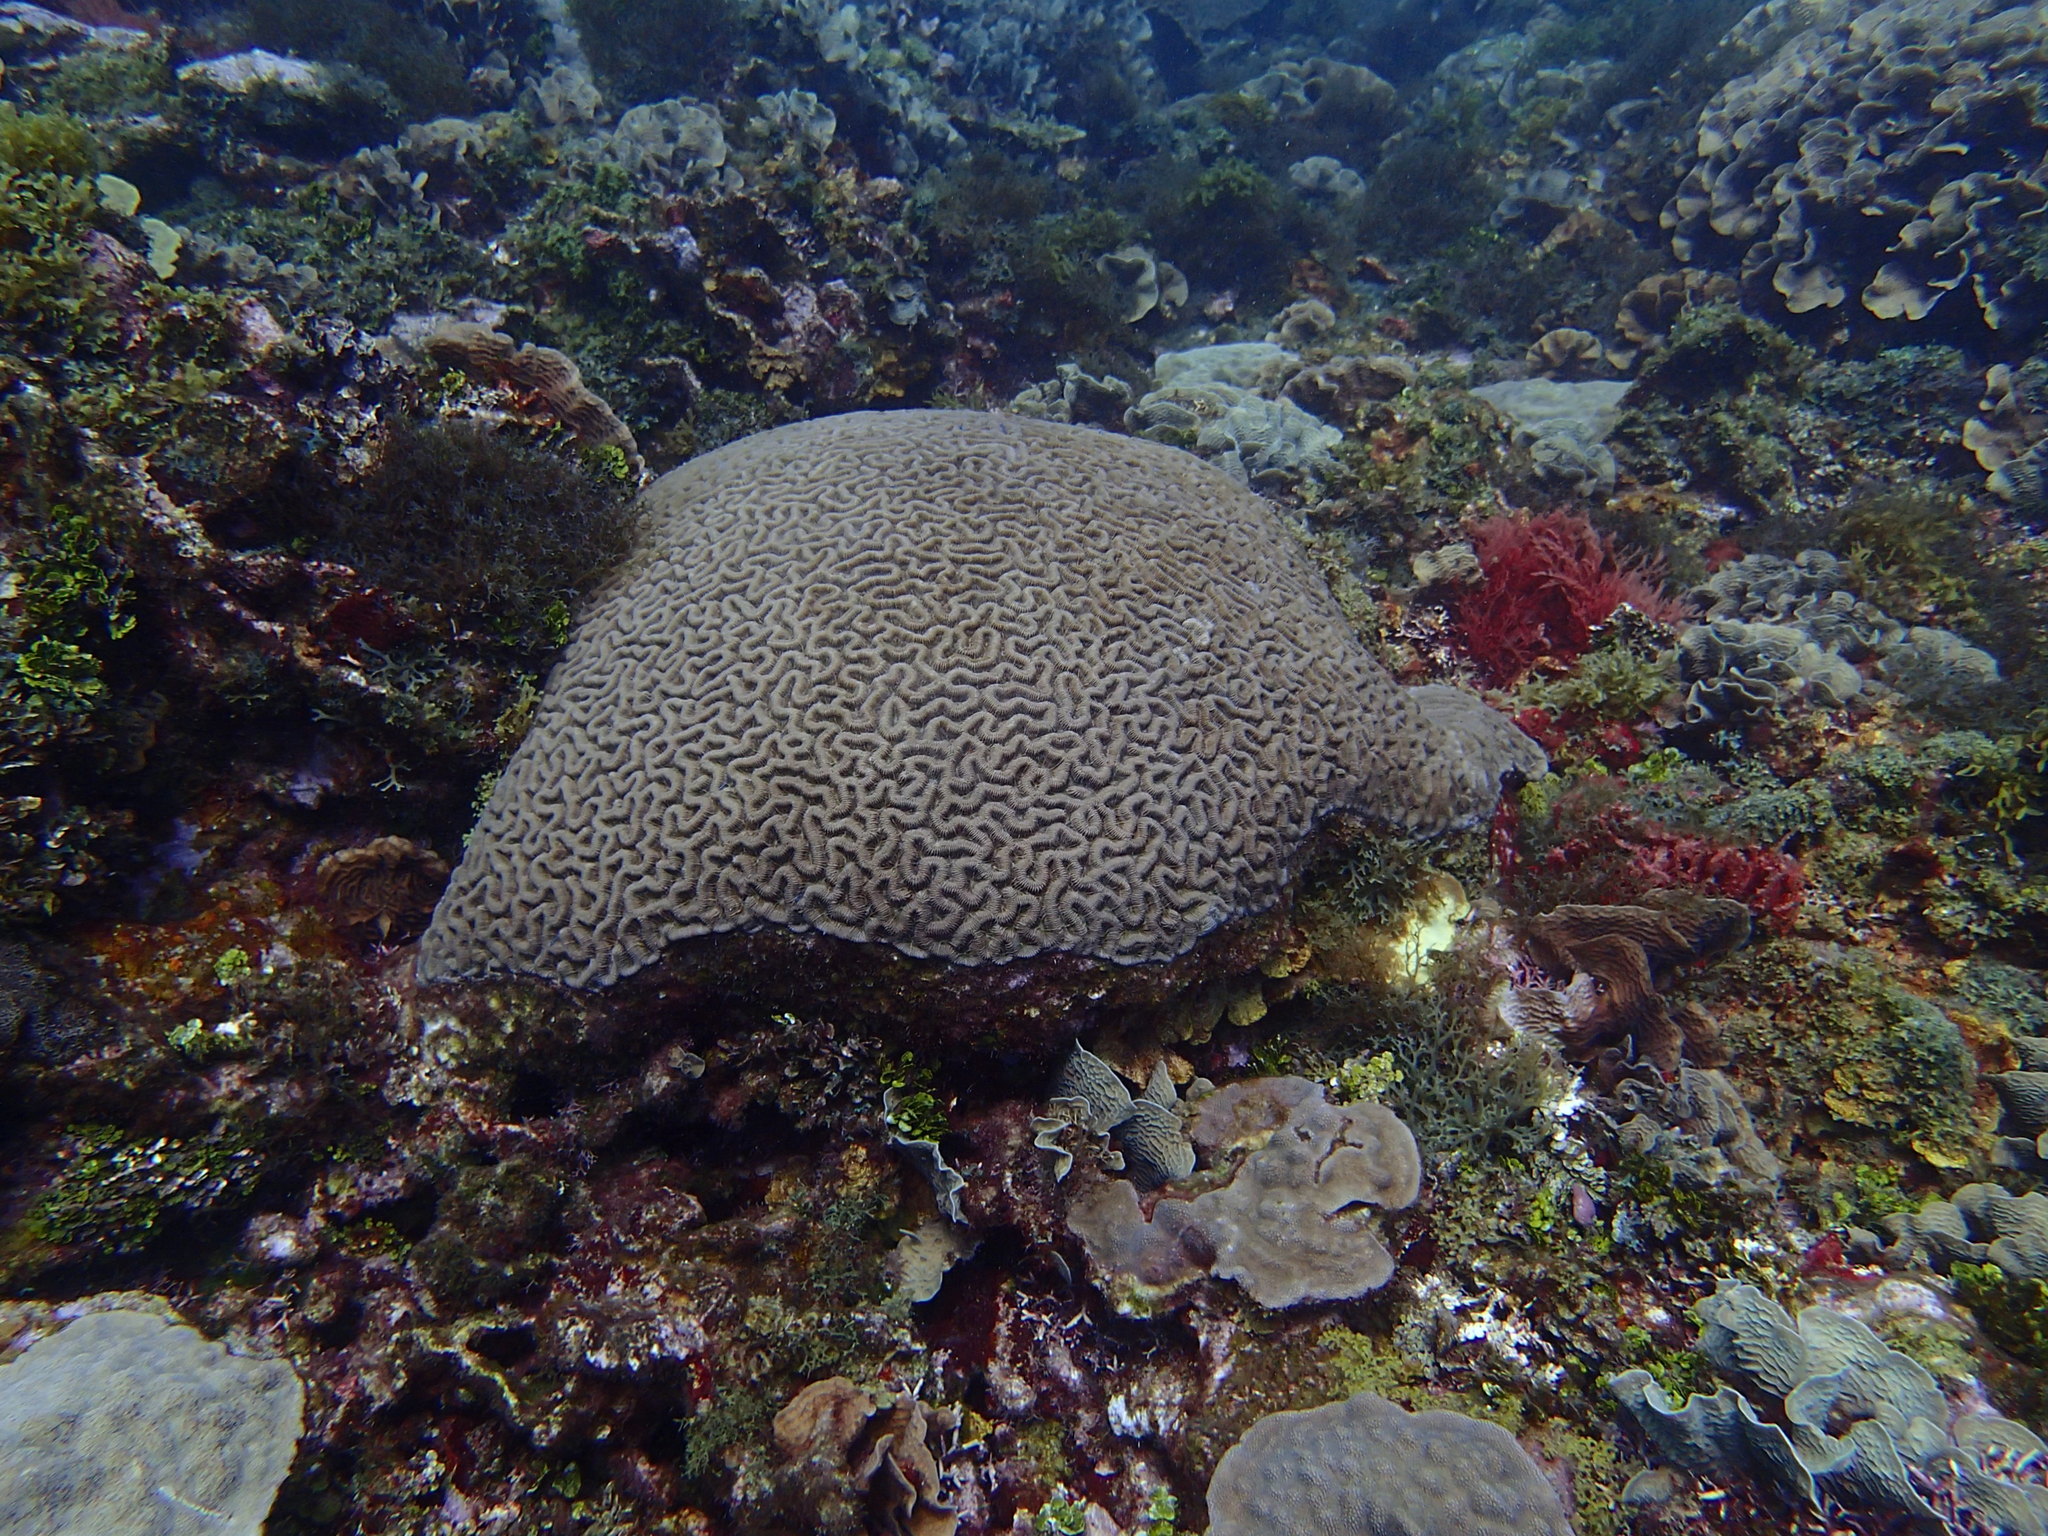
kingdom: Animalia
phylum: Cnidaria
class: Anthozoa
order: Scleractinia
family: Faviidae
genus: Colpophyllia
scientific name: Colpophyllia natans
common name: Boulder brain coral
